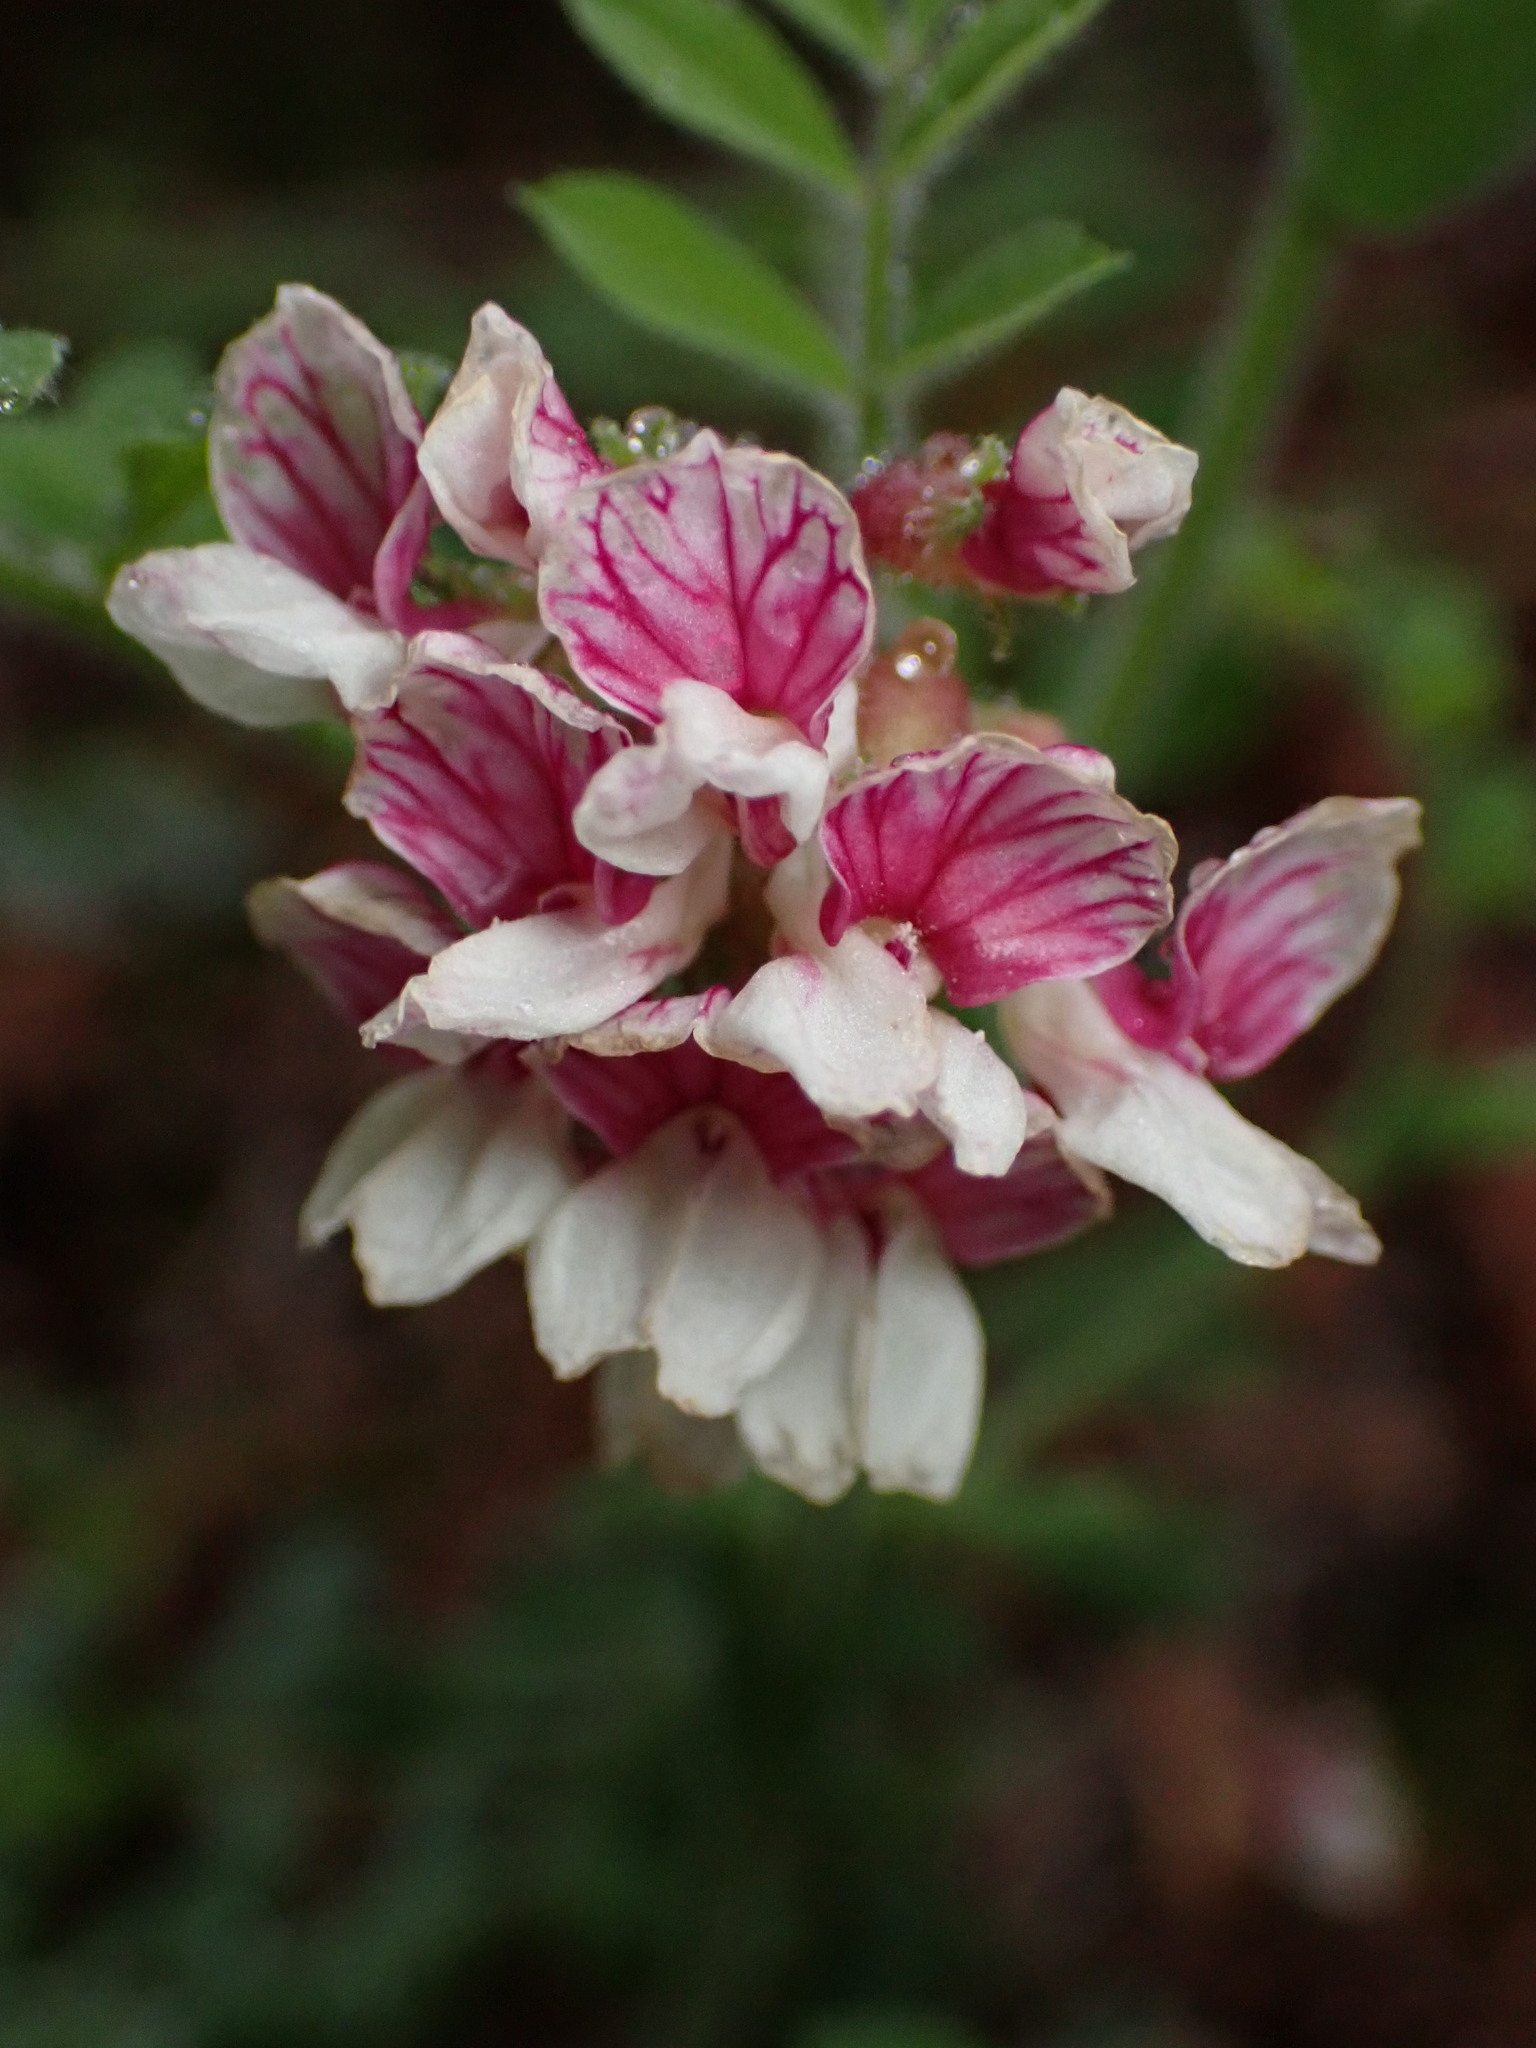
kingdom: Plantae
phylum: Tracheophyta
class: Magnoliopsida
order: Fabales
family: Fabaceae
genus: Hosackia
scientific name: Hosackia stipularis
